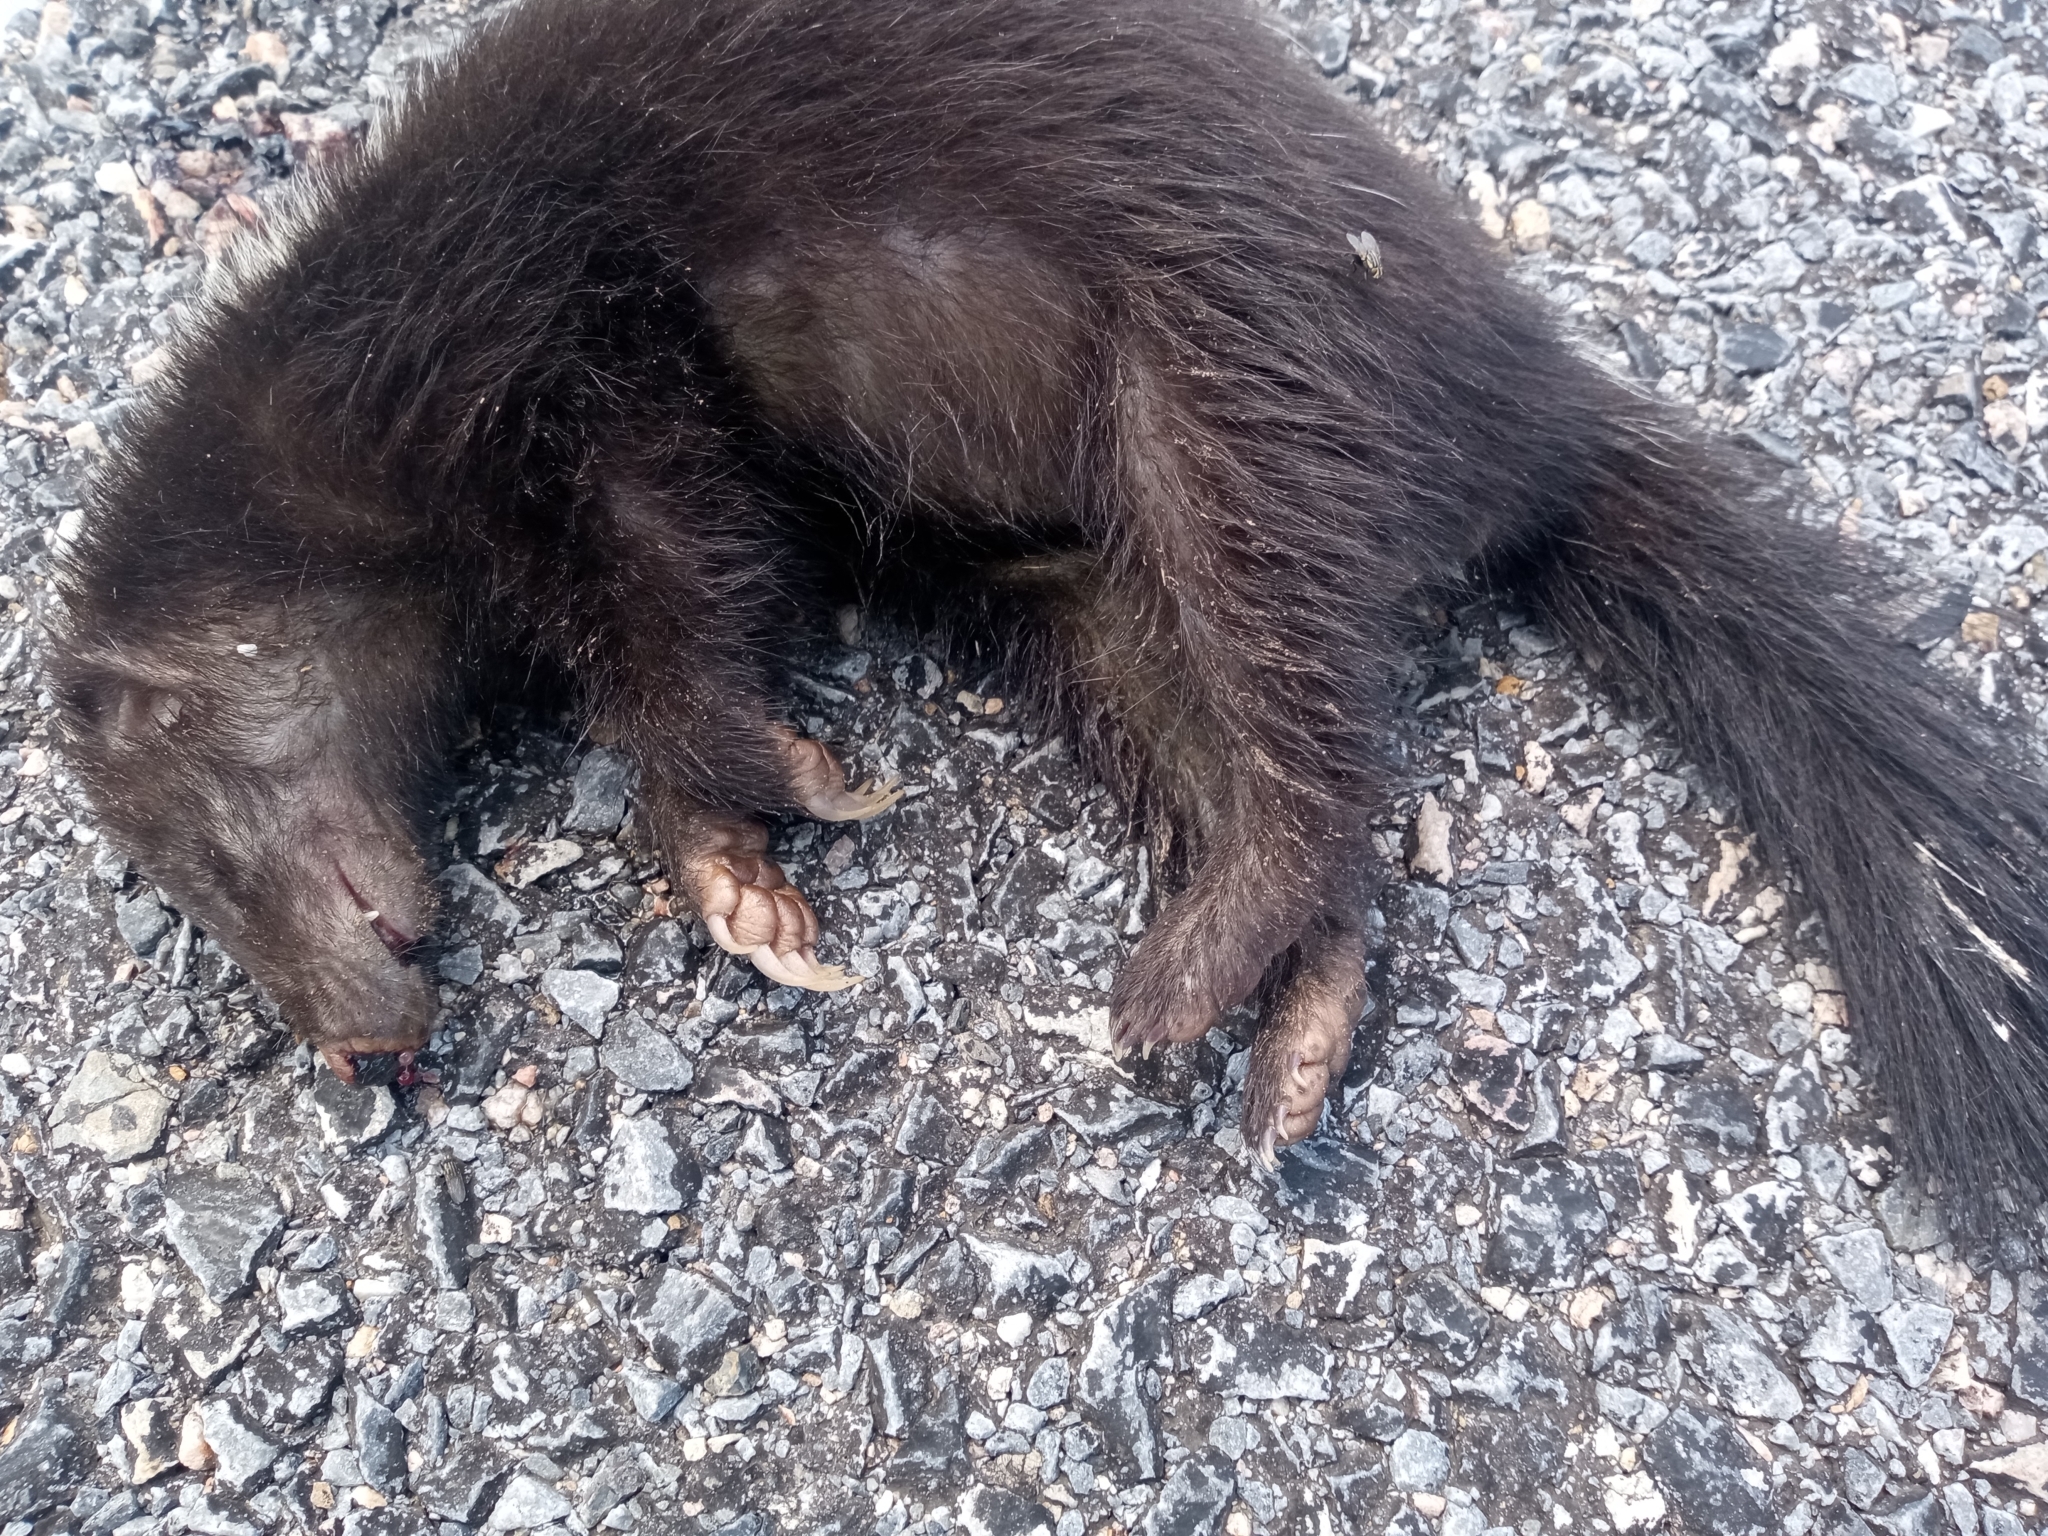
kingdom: Animalia
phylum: Chordata
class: Mammalia
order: Carnivora
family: Mephitidae
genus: Conepatus
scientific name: Conepatus chinga
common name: Molina's hog-nosed skunk
